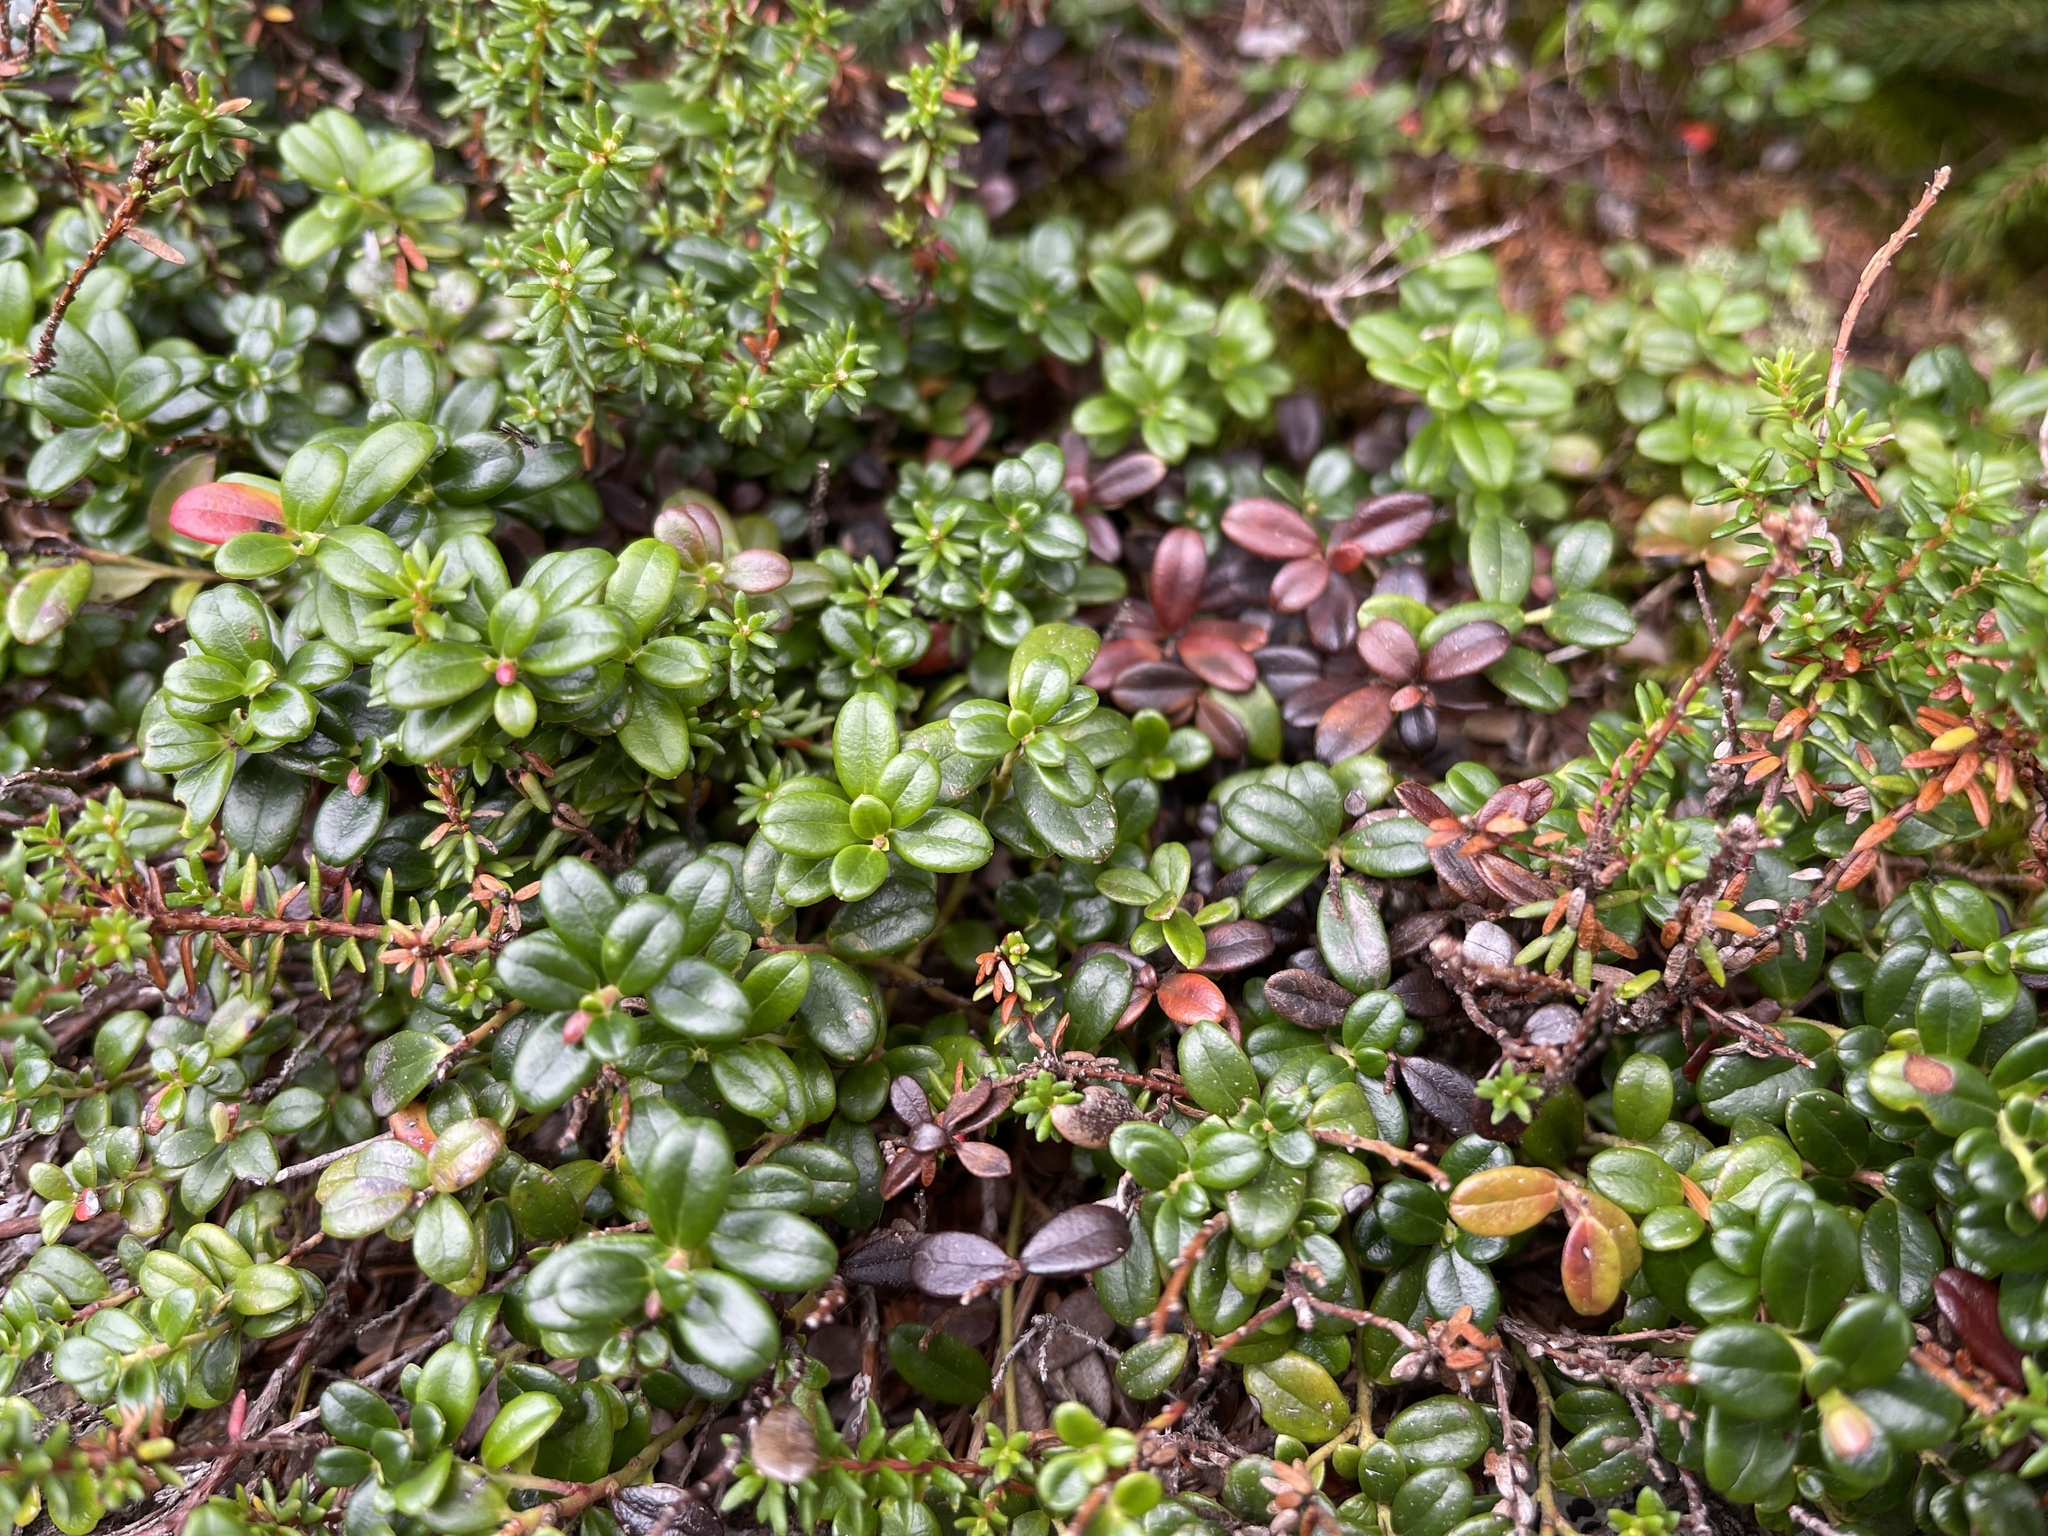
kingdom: Plantae
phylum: Tracheophyta
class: Magnoliopsida
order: Ericales
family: Ericaceae
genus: Vaccinium
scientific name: Vaccinium vitis-idaea
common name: Cowberry
